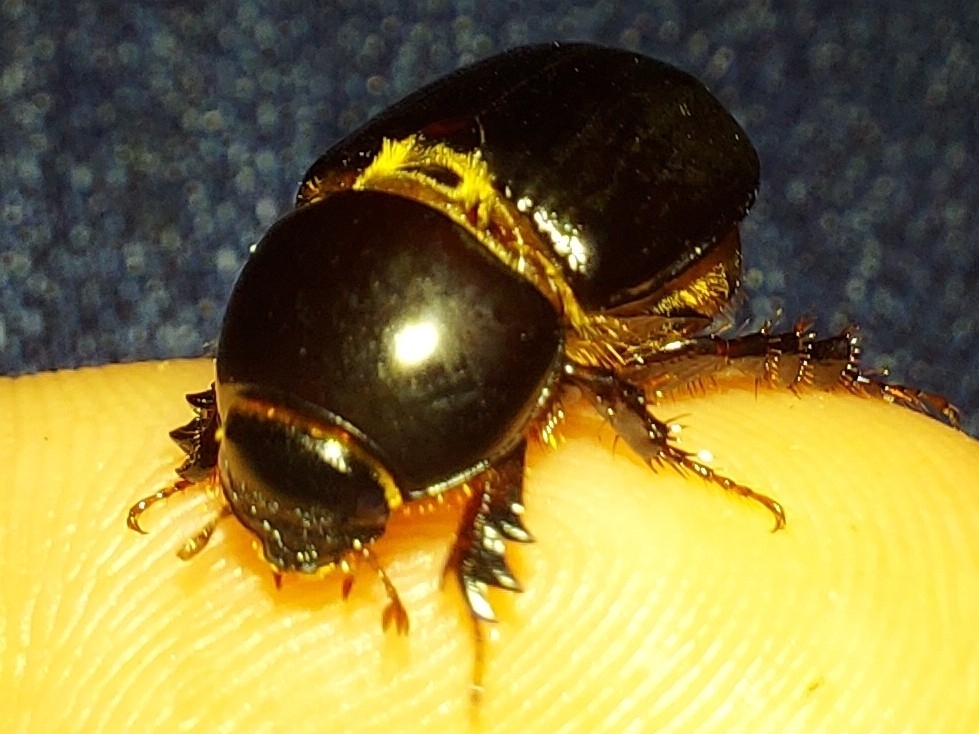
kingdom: Animalia
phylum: Arthropoda
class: Insecta
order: Coleoptera
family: Scarabaeidae
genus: Heteronychus
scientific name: Heteronychus arator
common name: African black beetle
